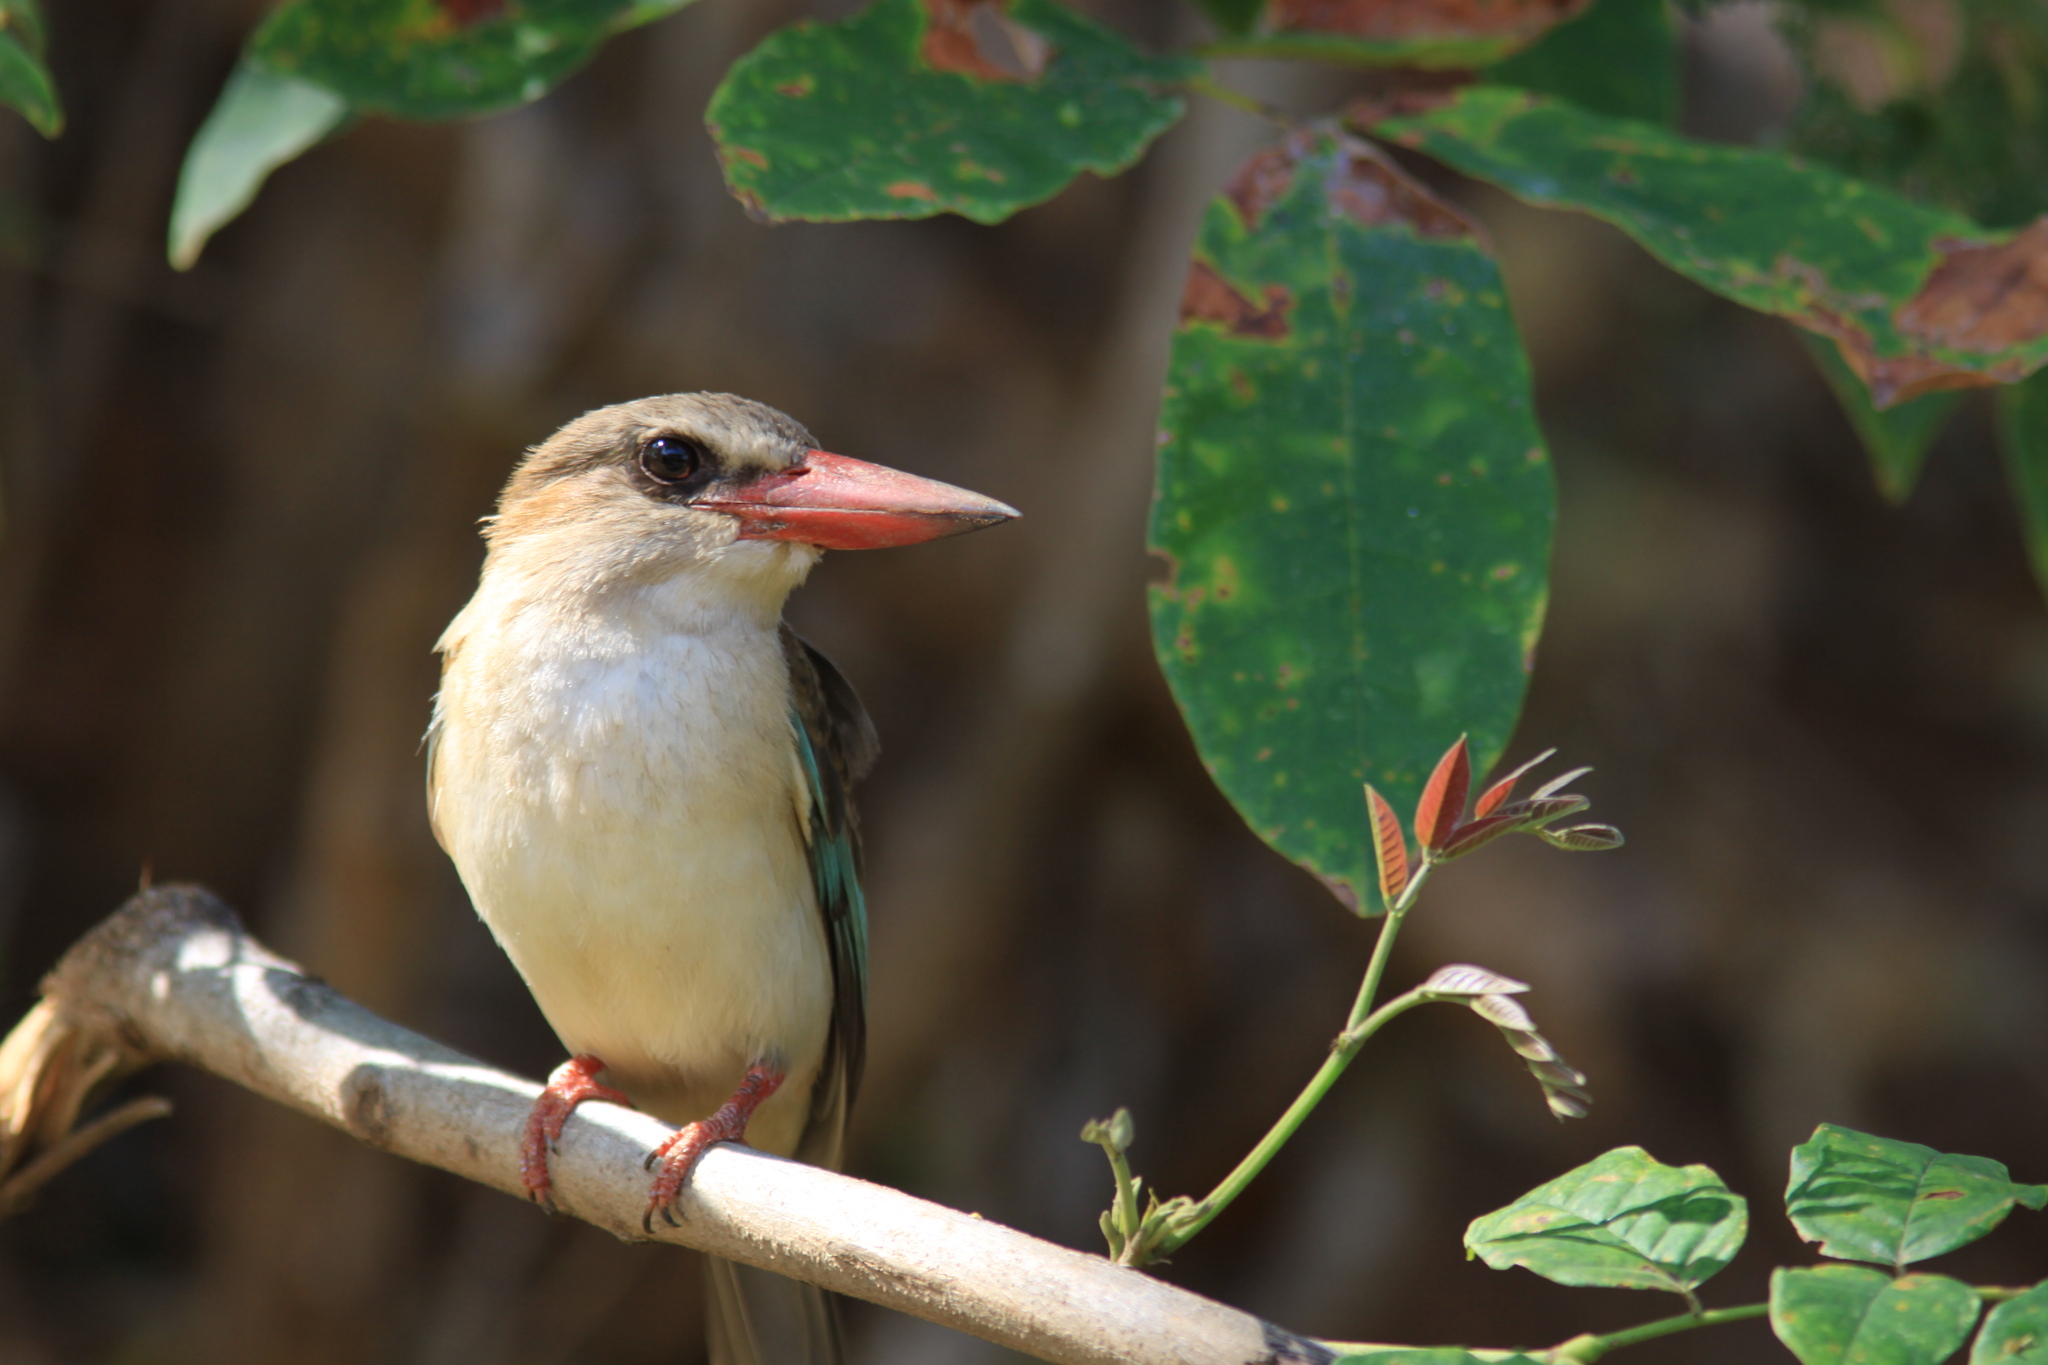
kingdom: Animalia
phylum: Chordata
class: Aves
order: Coraciiformes
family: Alcedinidae
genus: Halcyon
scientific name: Halcyon albiventris
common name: Brown-hooded kingfisher
